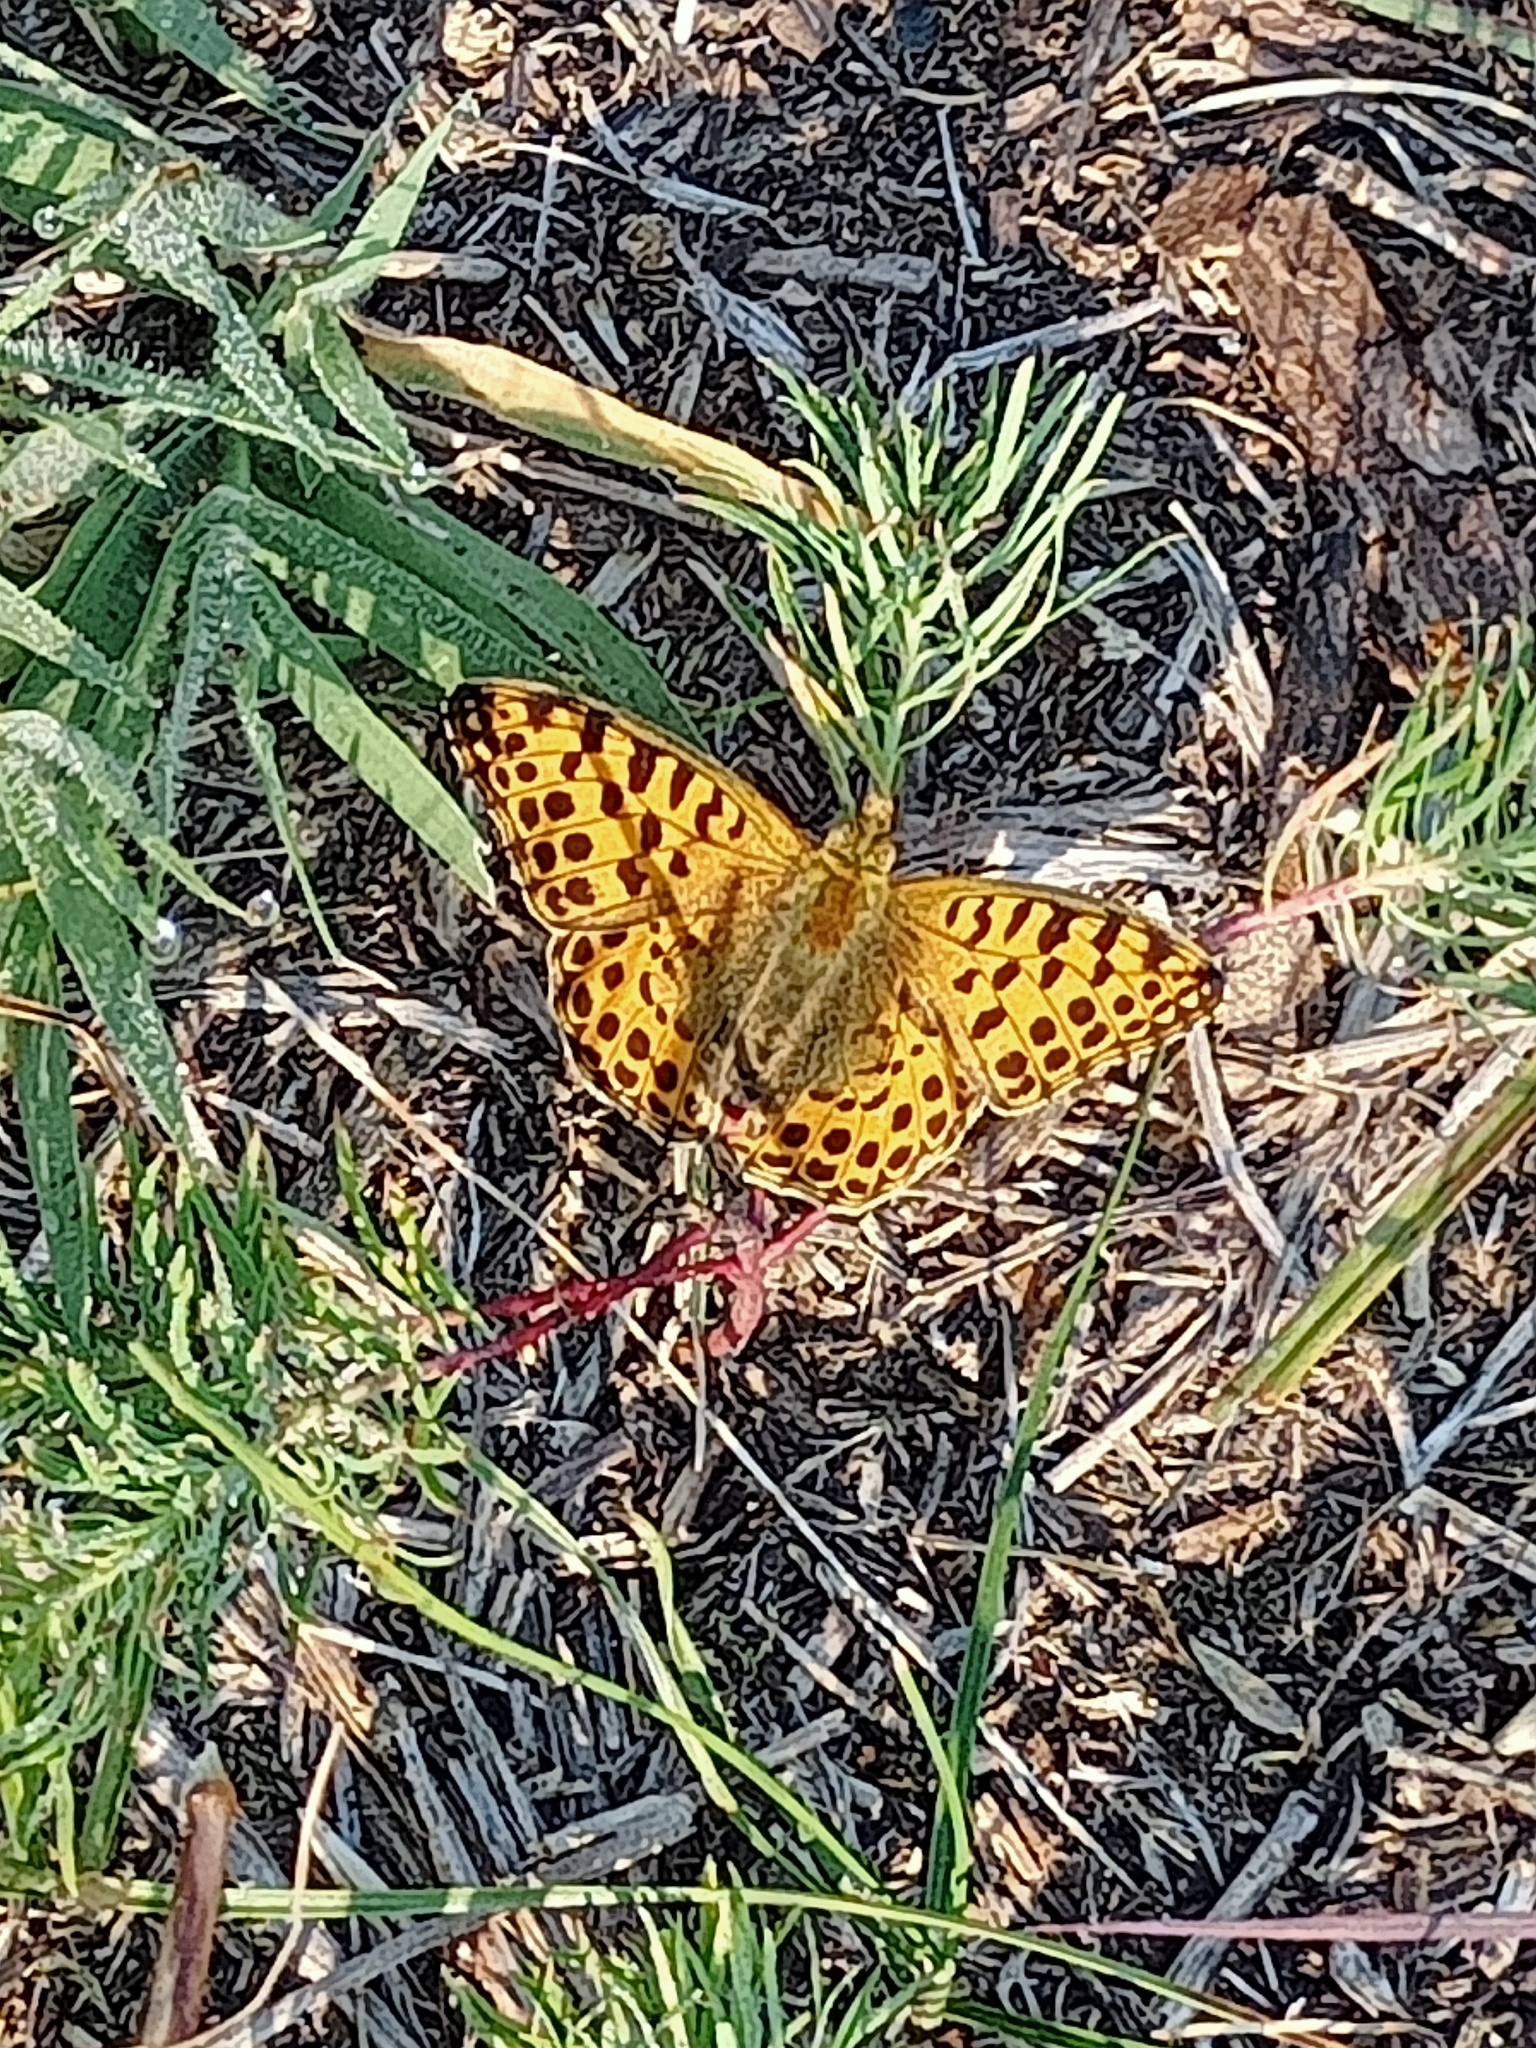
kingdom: Animalia
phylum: Arthropoda
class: Insecta
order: Lepidoptera
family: Nymphalidae
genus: Issoria
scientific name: Issoria lathonia
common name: Queen of spain fritillary
